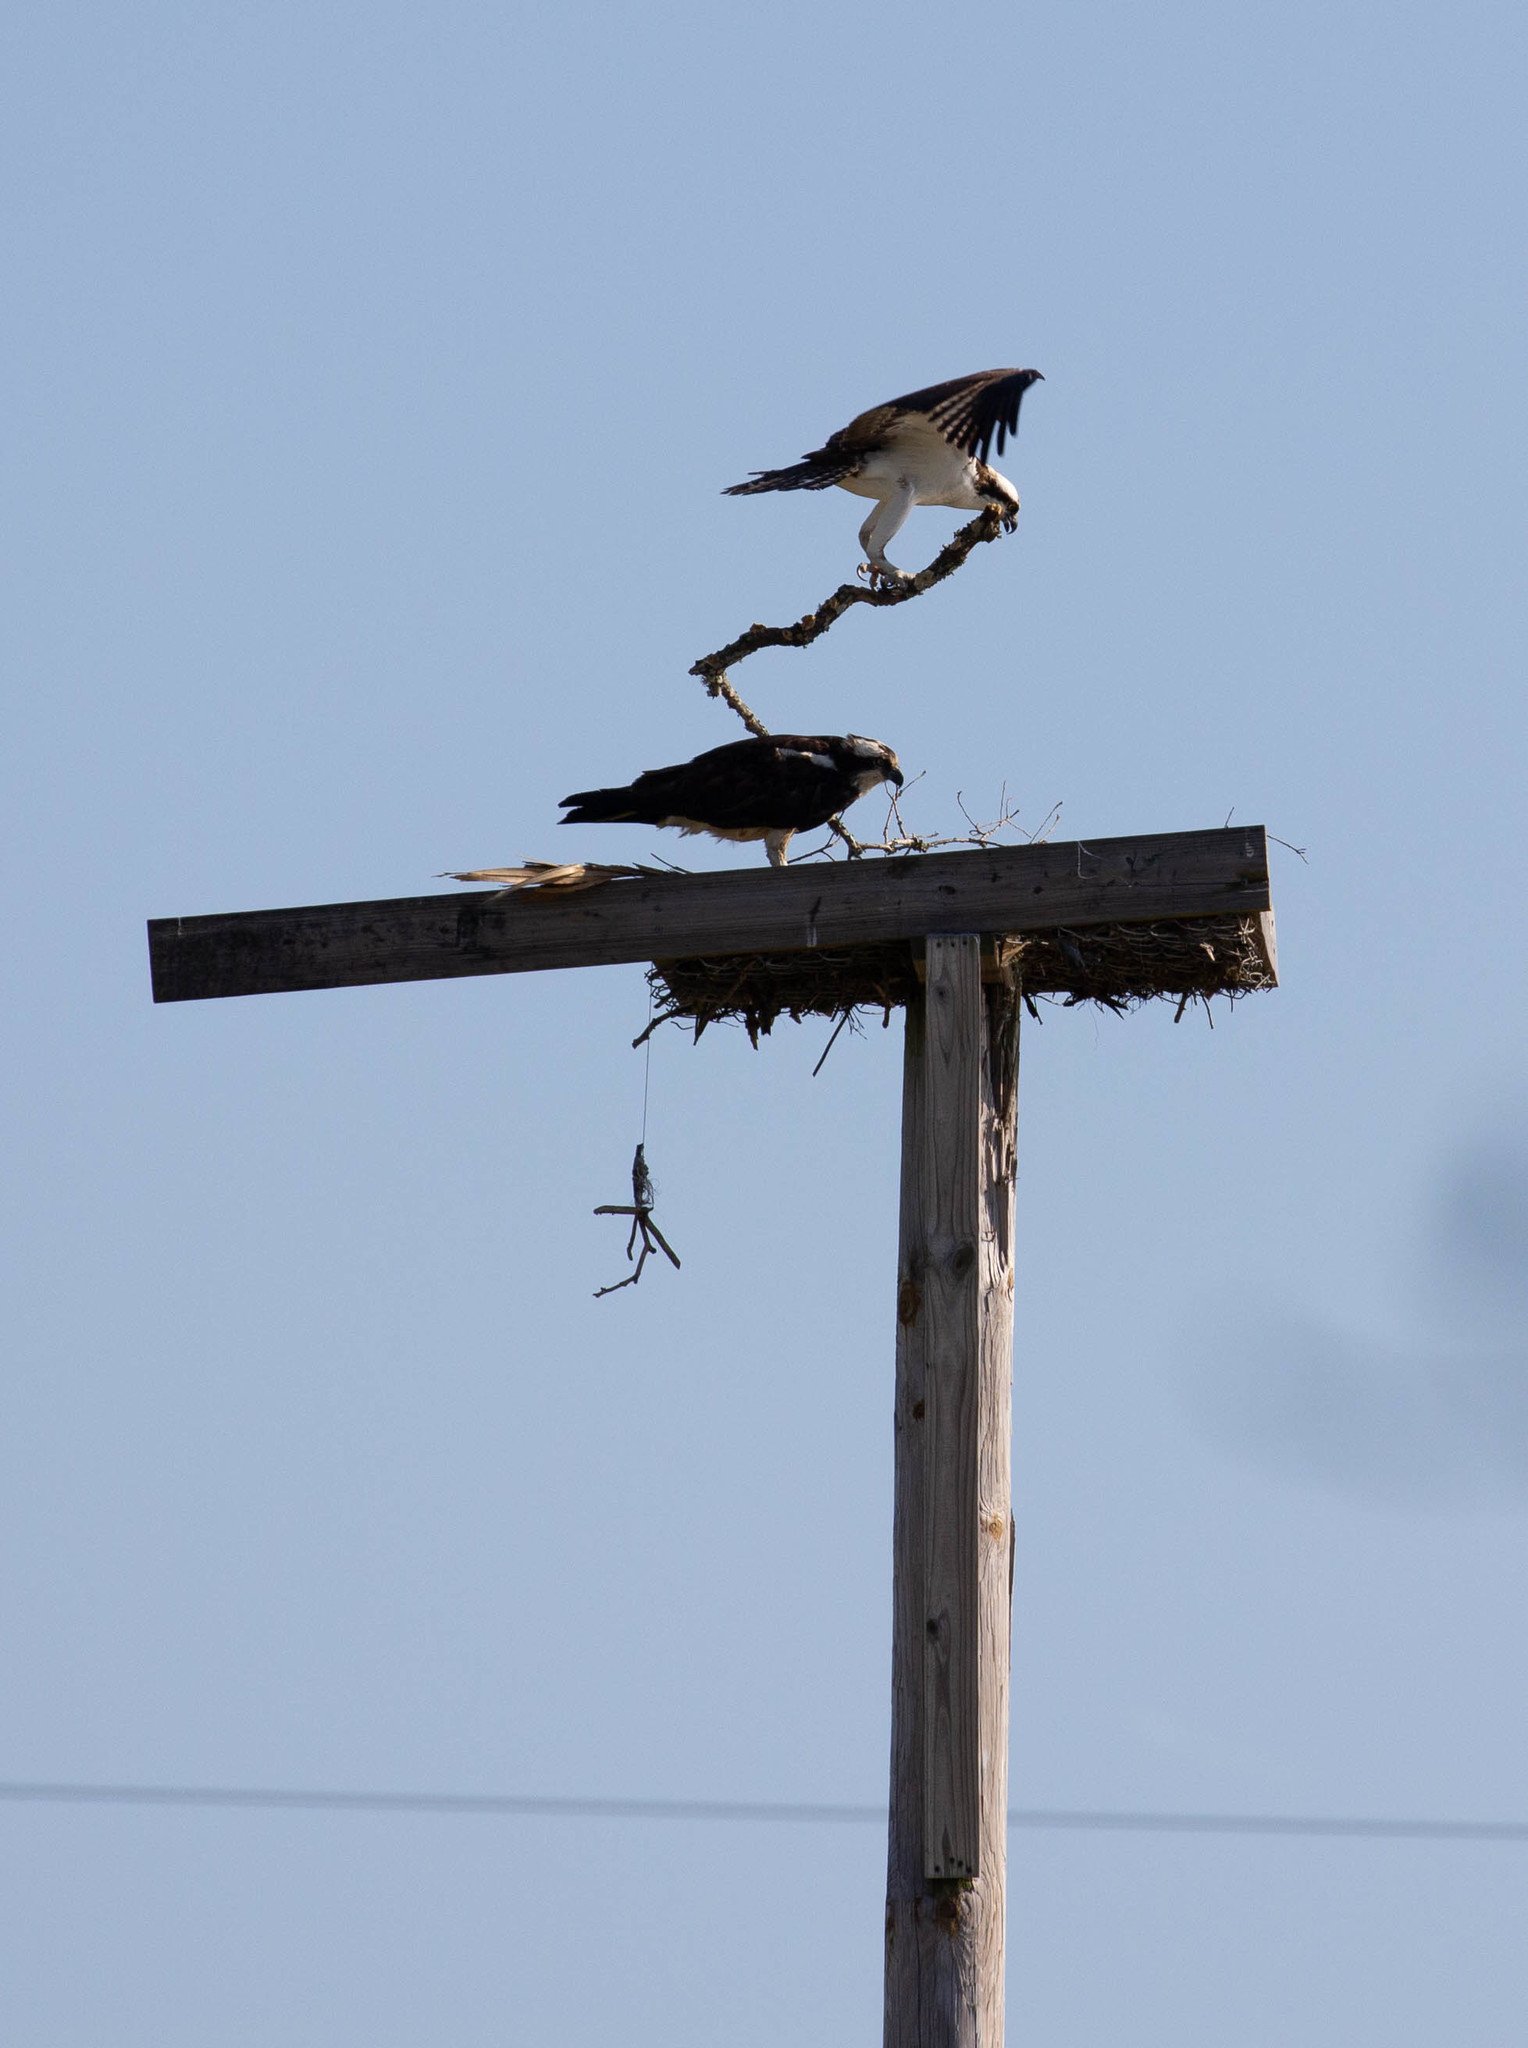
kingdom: Animalia
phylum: Chordata
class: Aves
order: Accipitriformes
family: Pandionidae
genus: Pandion
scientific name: Pandion haliaetus
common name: Osprey
